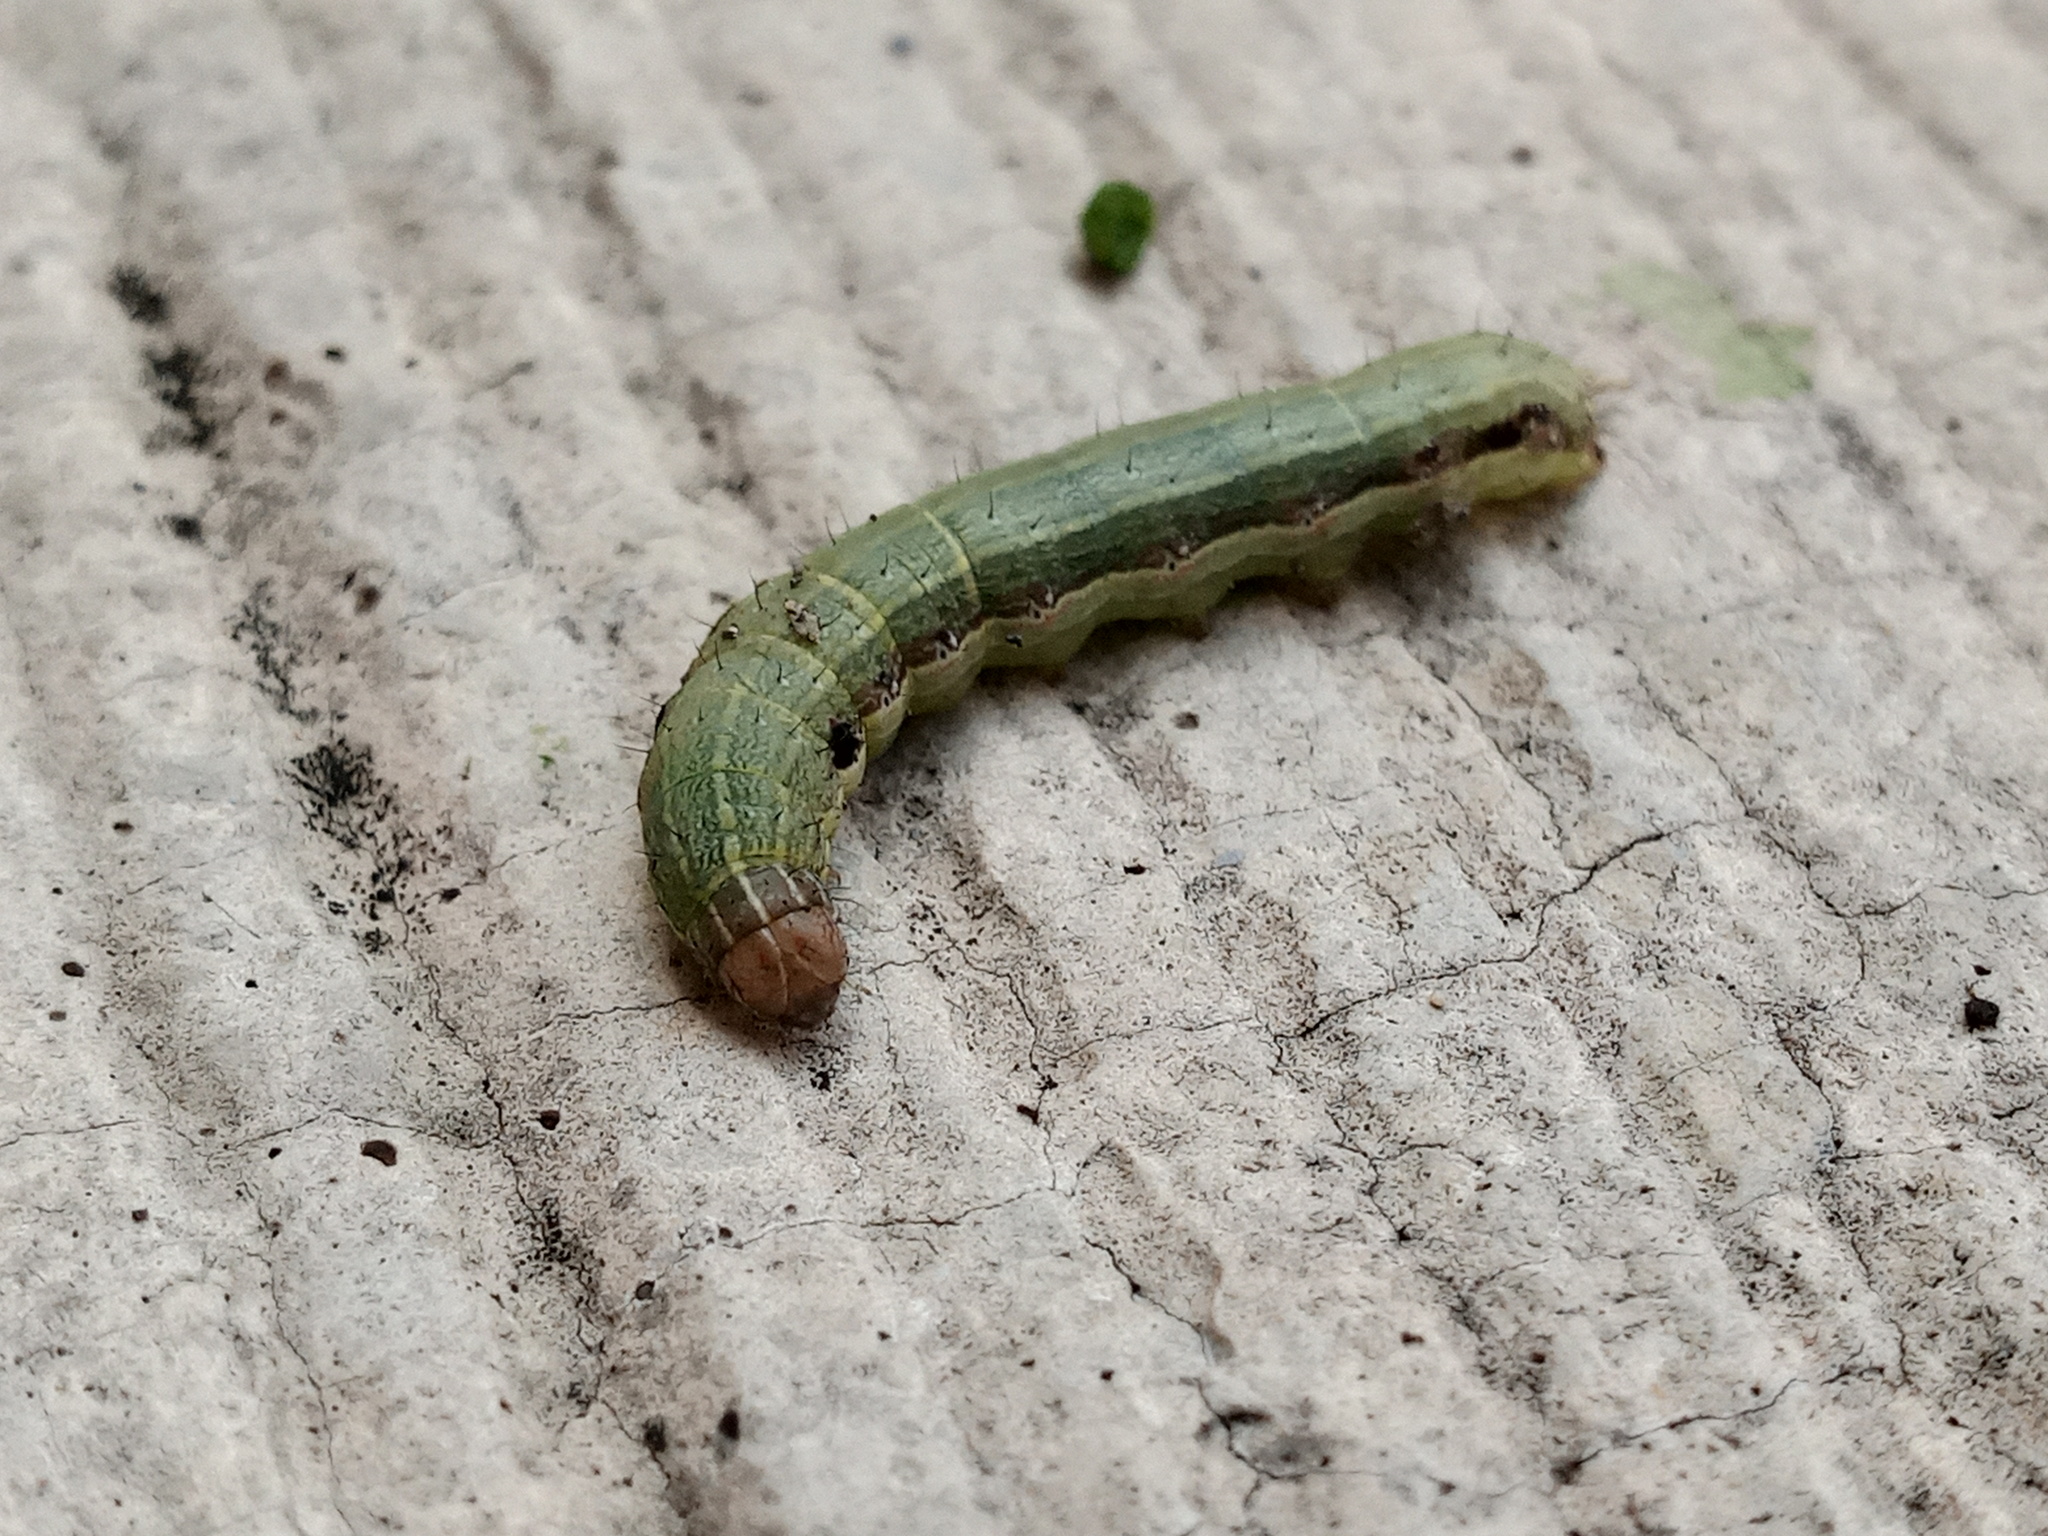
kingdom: Animalia
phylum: Arthropoda
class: Insecta
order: Lepidoptera
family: Noctuidae
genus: Spodoptera
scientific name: Spodoptera frugiperda
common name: Fall armyworm
